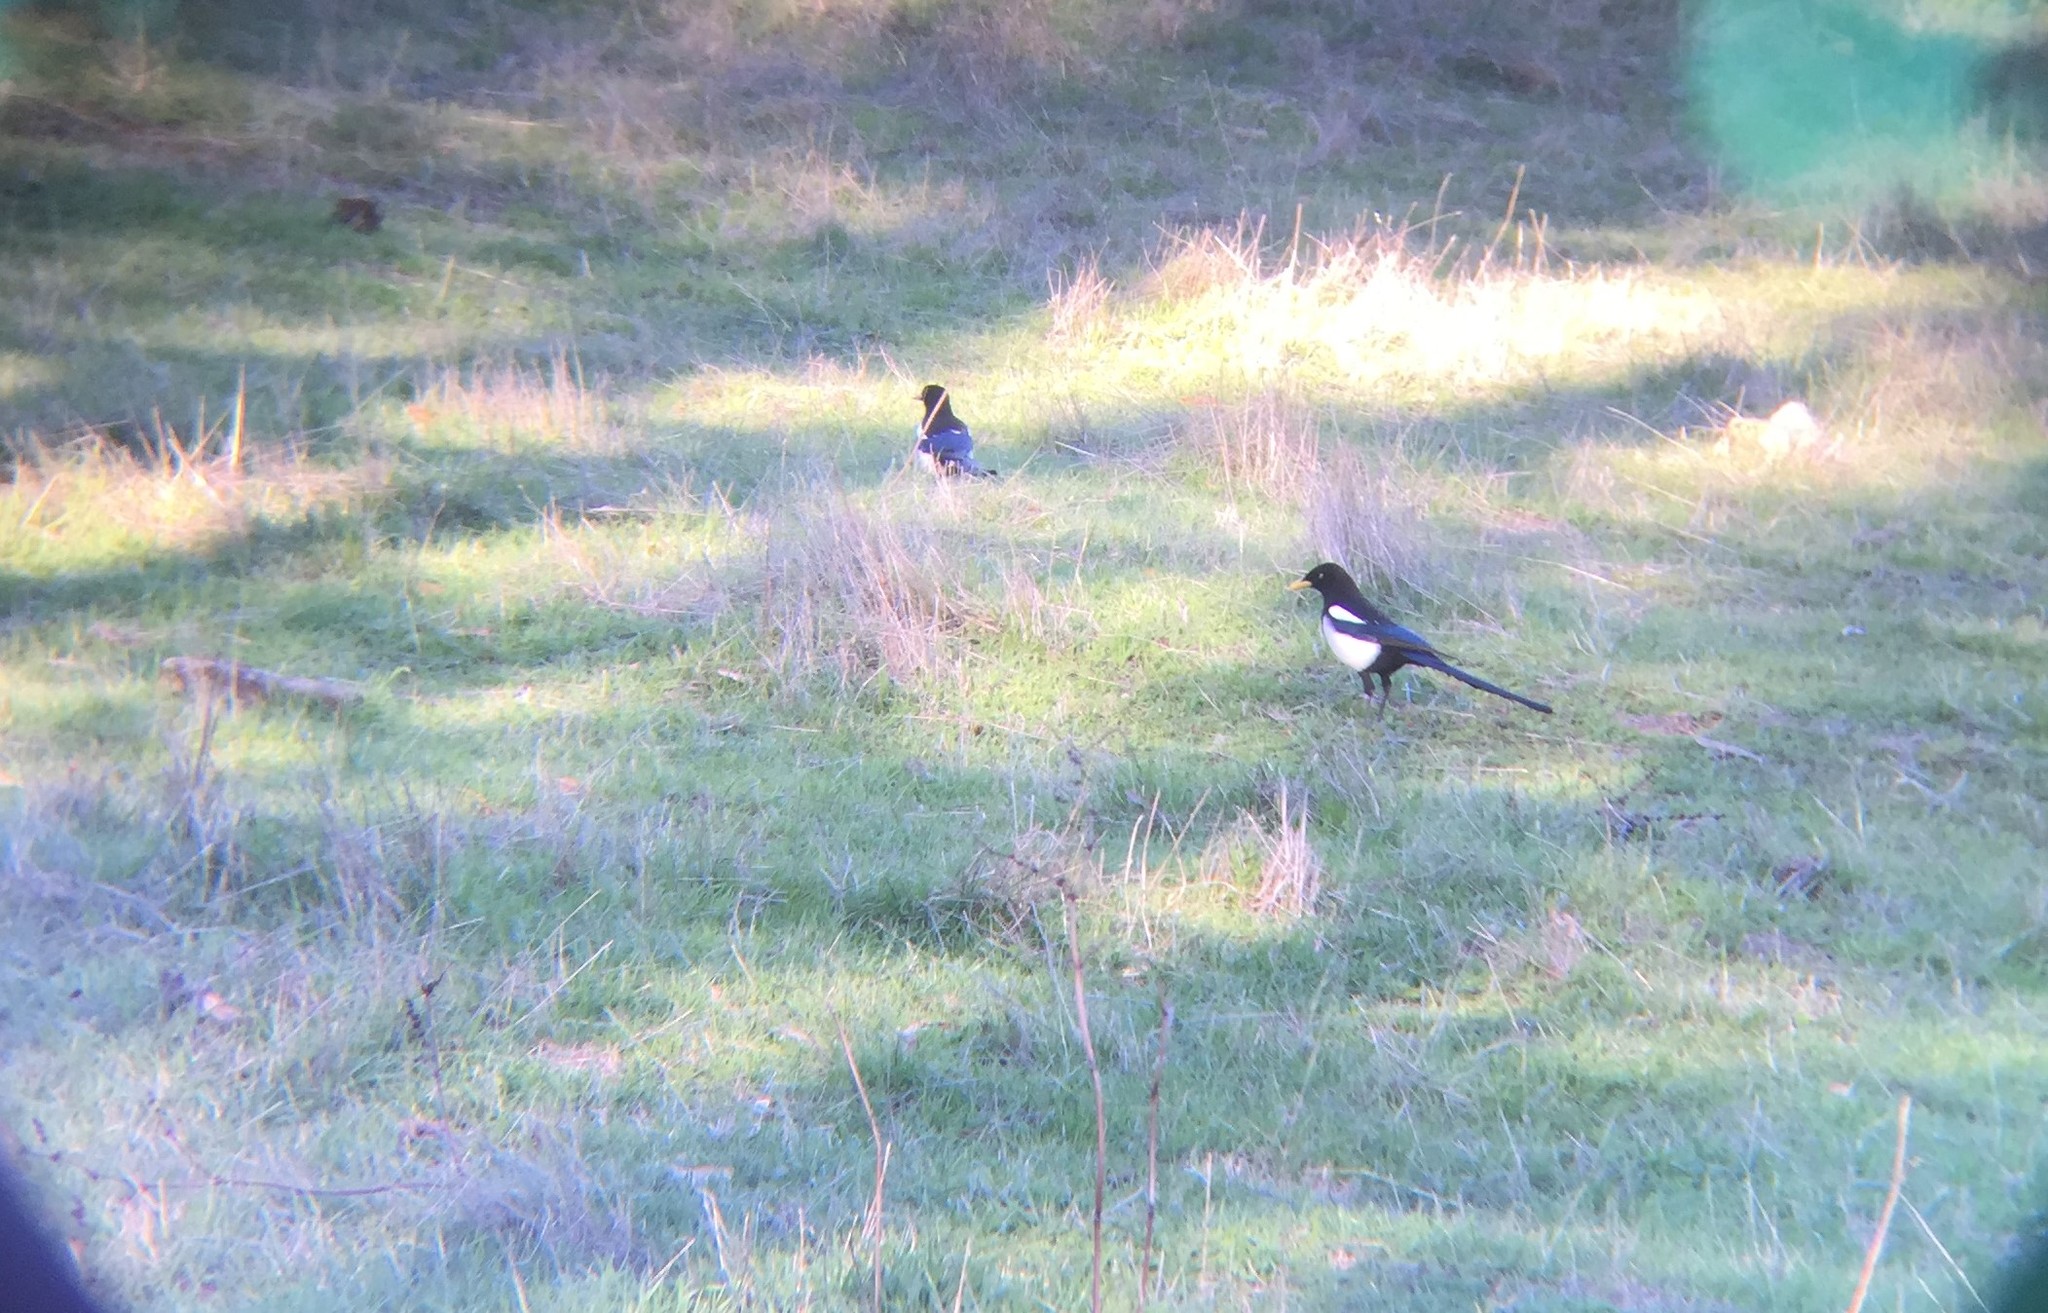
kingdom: Animalia
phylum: Chordata
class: Aves
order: Passeriformes
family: Corvidae
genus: Pica
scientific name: Pica nuttalli
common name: Yellow-billed magpie
